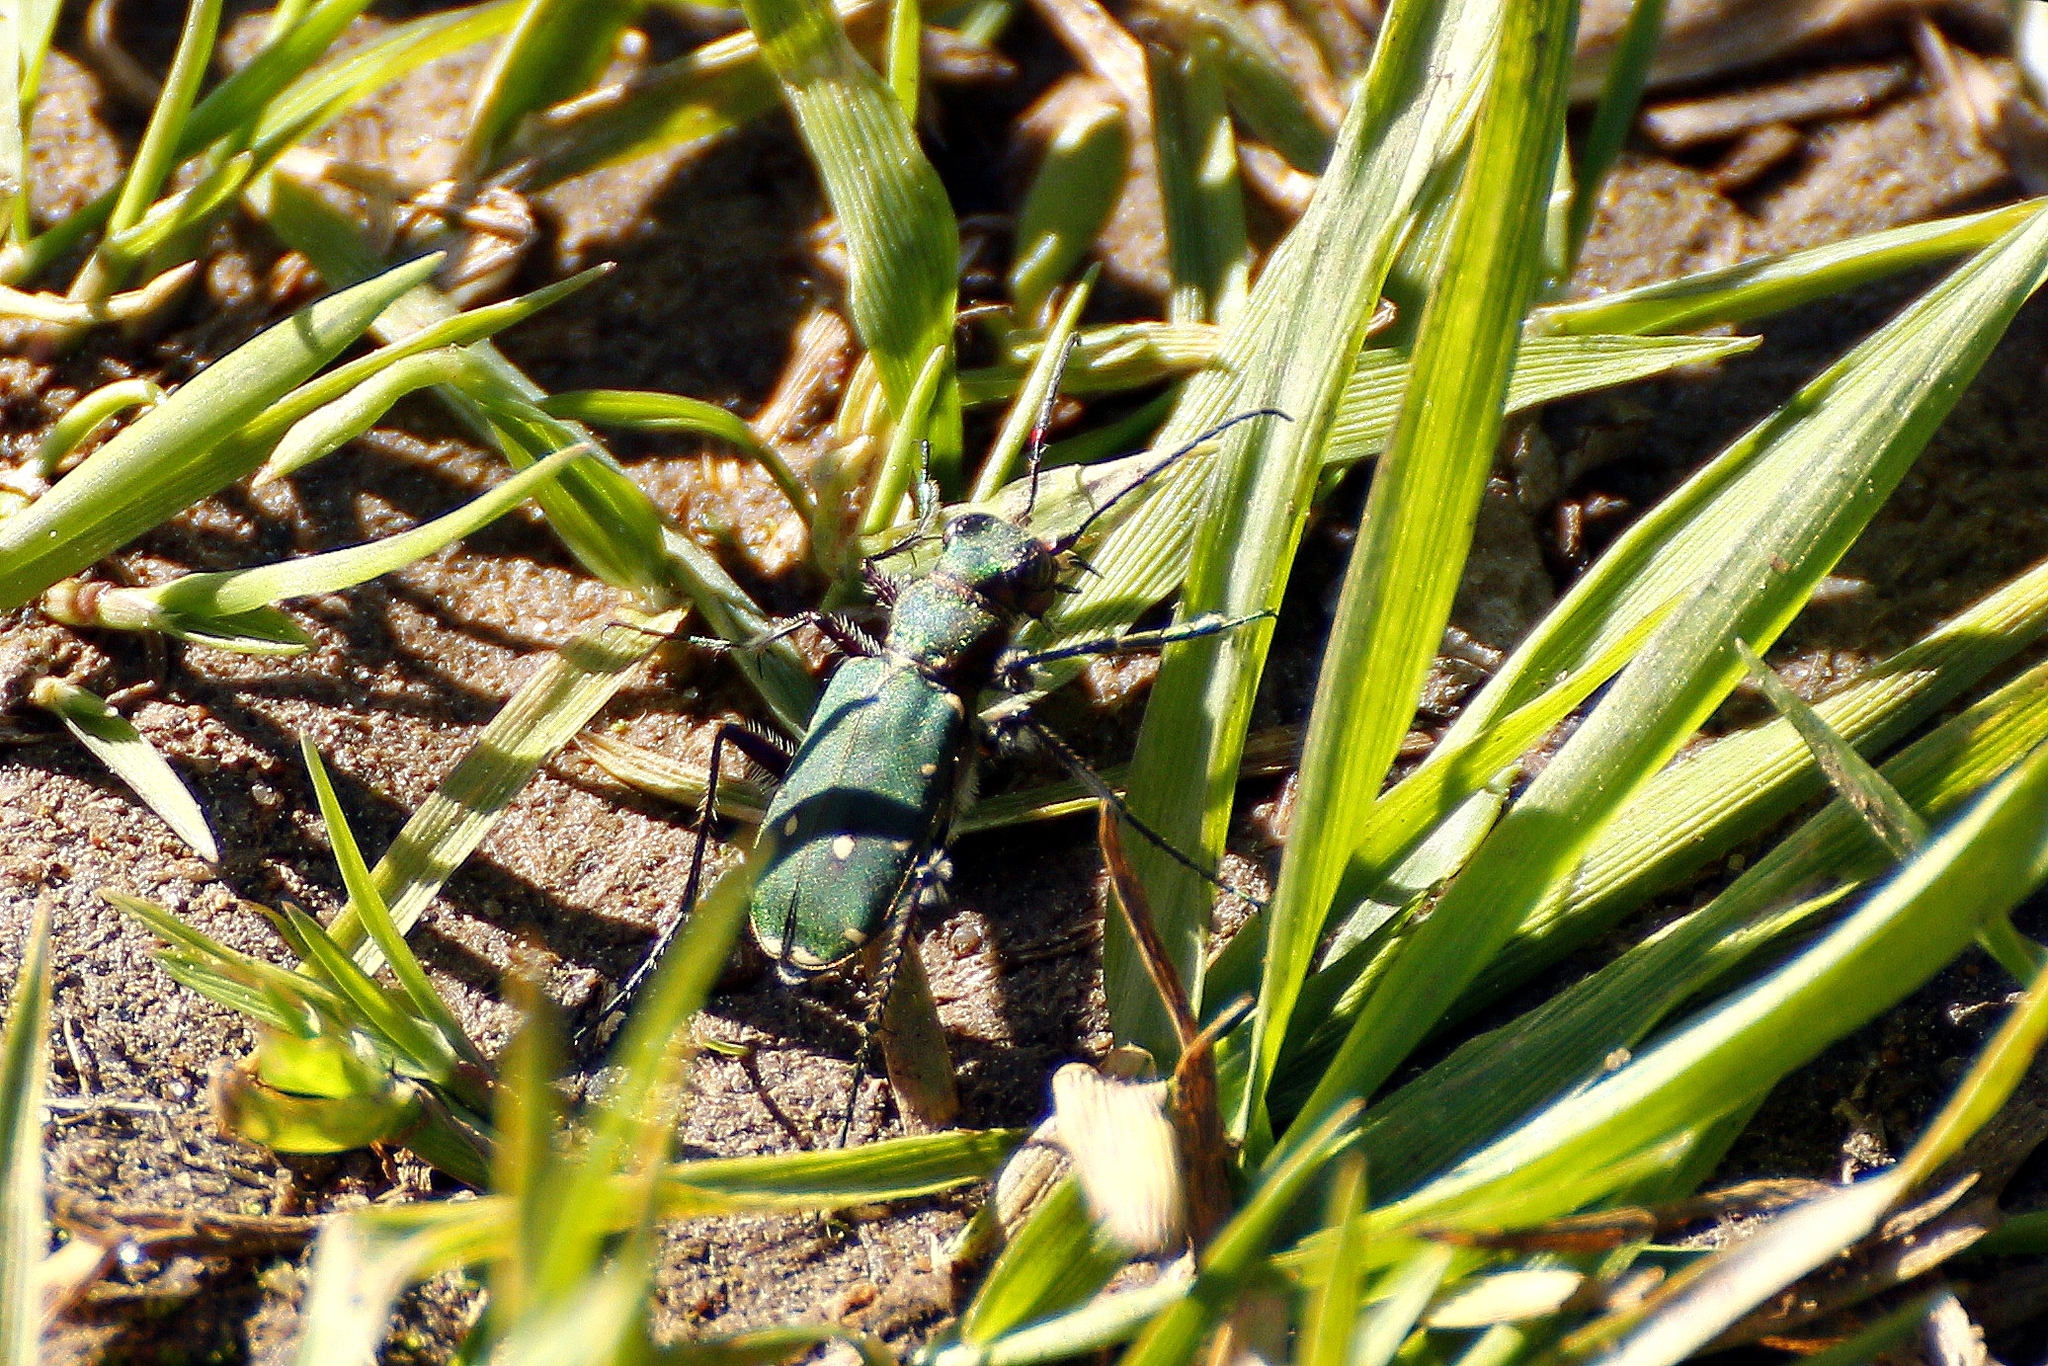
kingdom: Animalia
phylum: Arthropoda
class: Insecta
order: Coleoptera
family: Carabidae
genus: Cicindela
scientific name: Cicindela campestris
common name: Common tiger beetle
